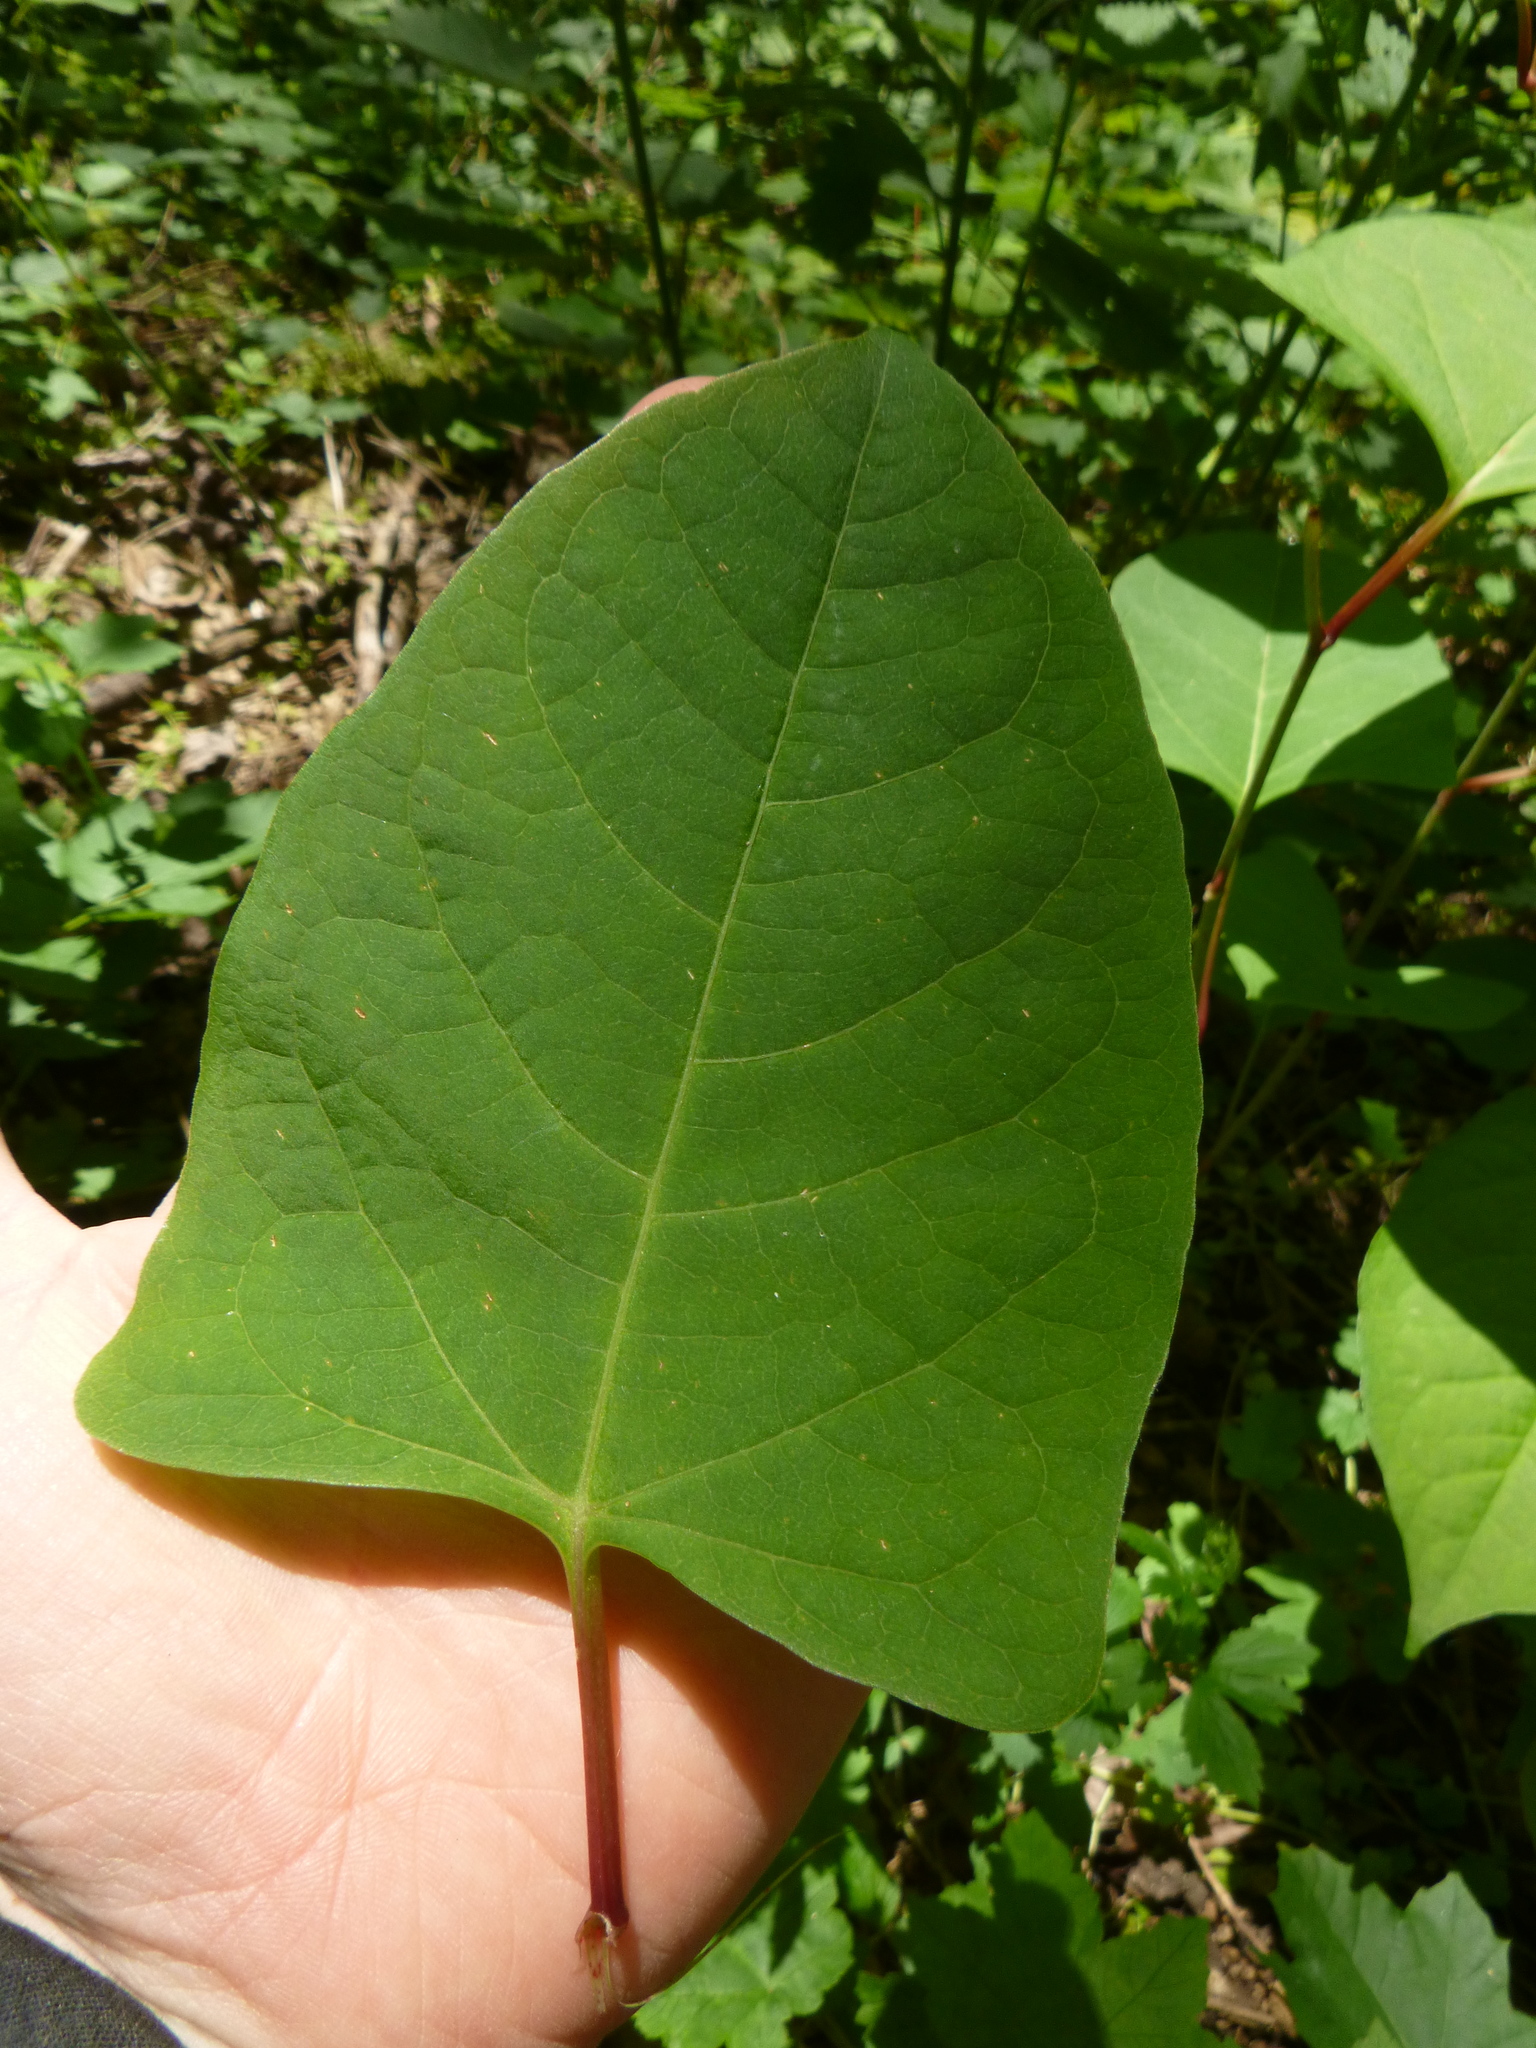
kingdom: Plantae
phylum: Tracheophyta
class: Magnoliopsida
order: Caryophyllales
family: Polygonaceae
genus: Reynoutria
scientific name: Reynoutria japonica
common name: Japanese knotweed
